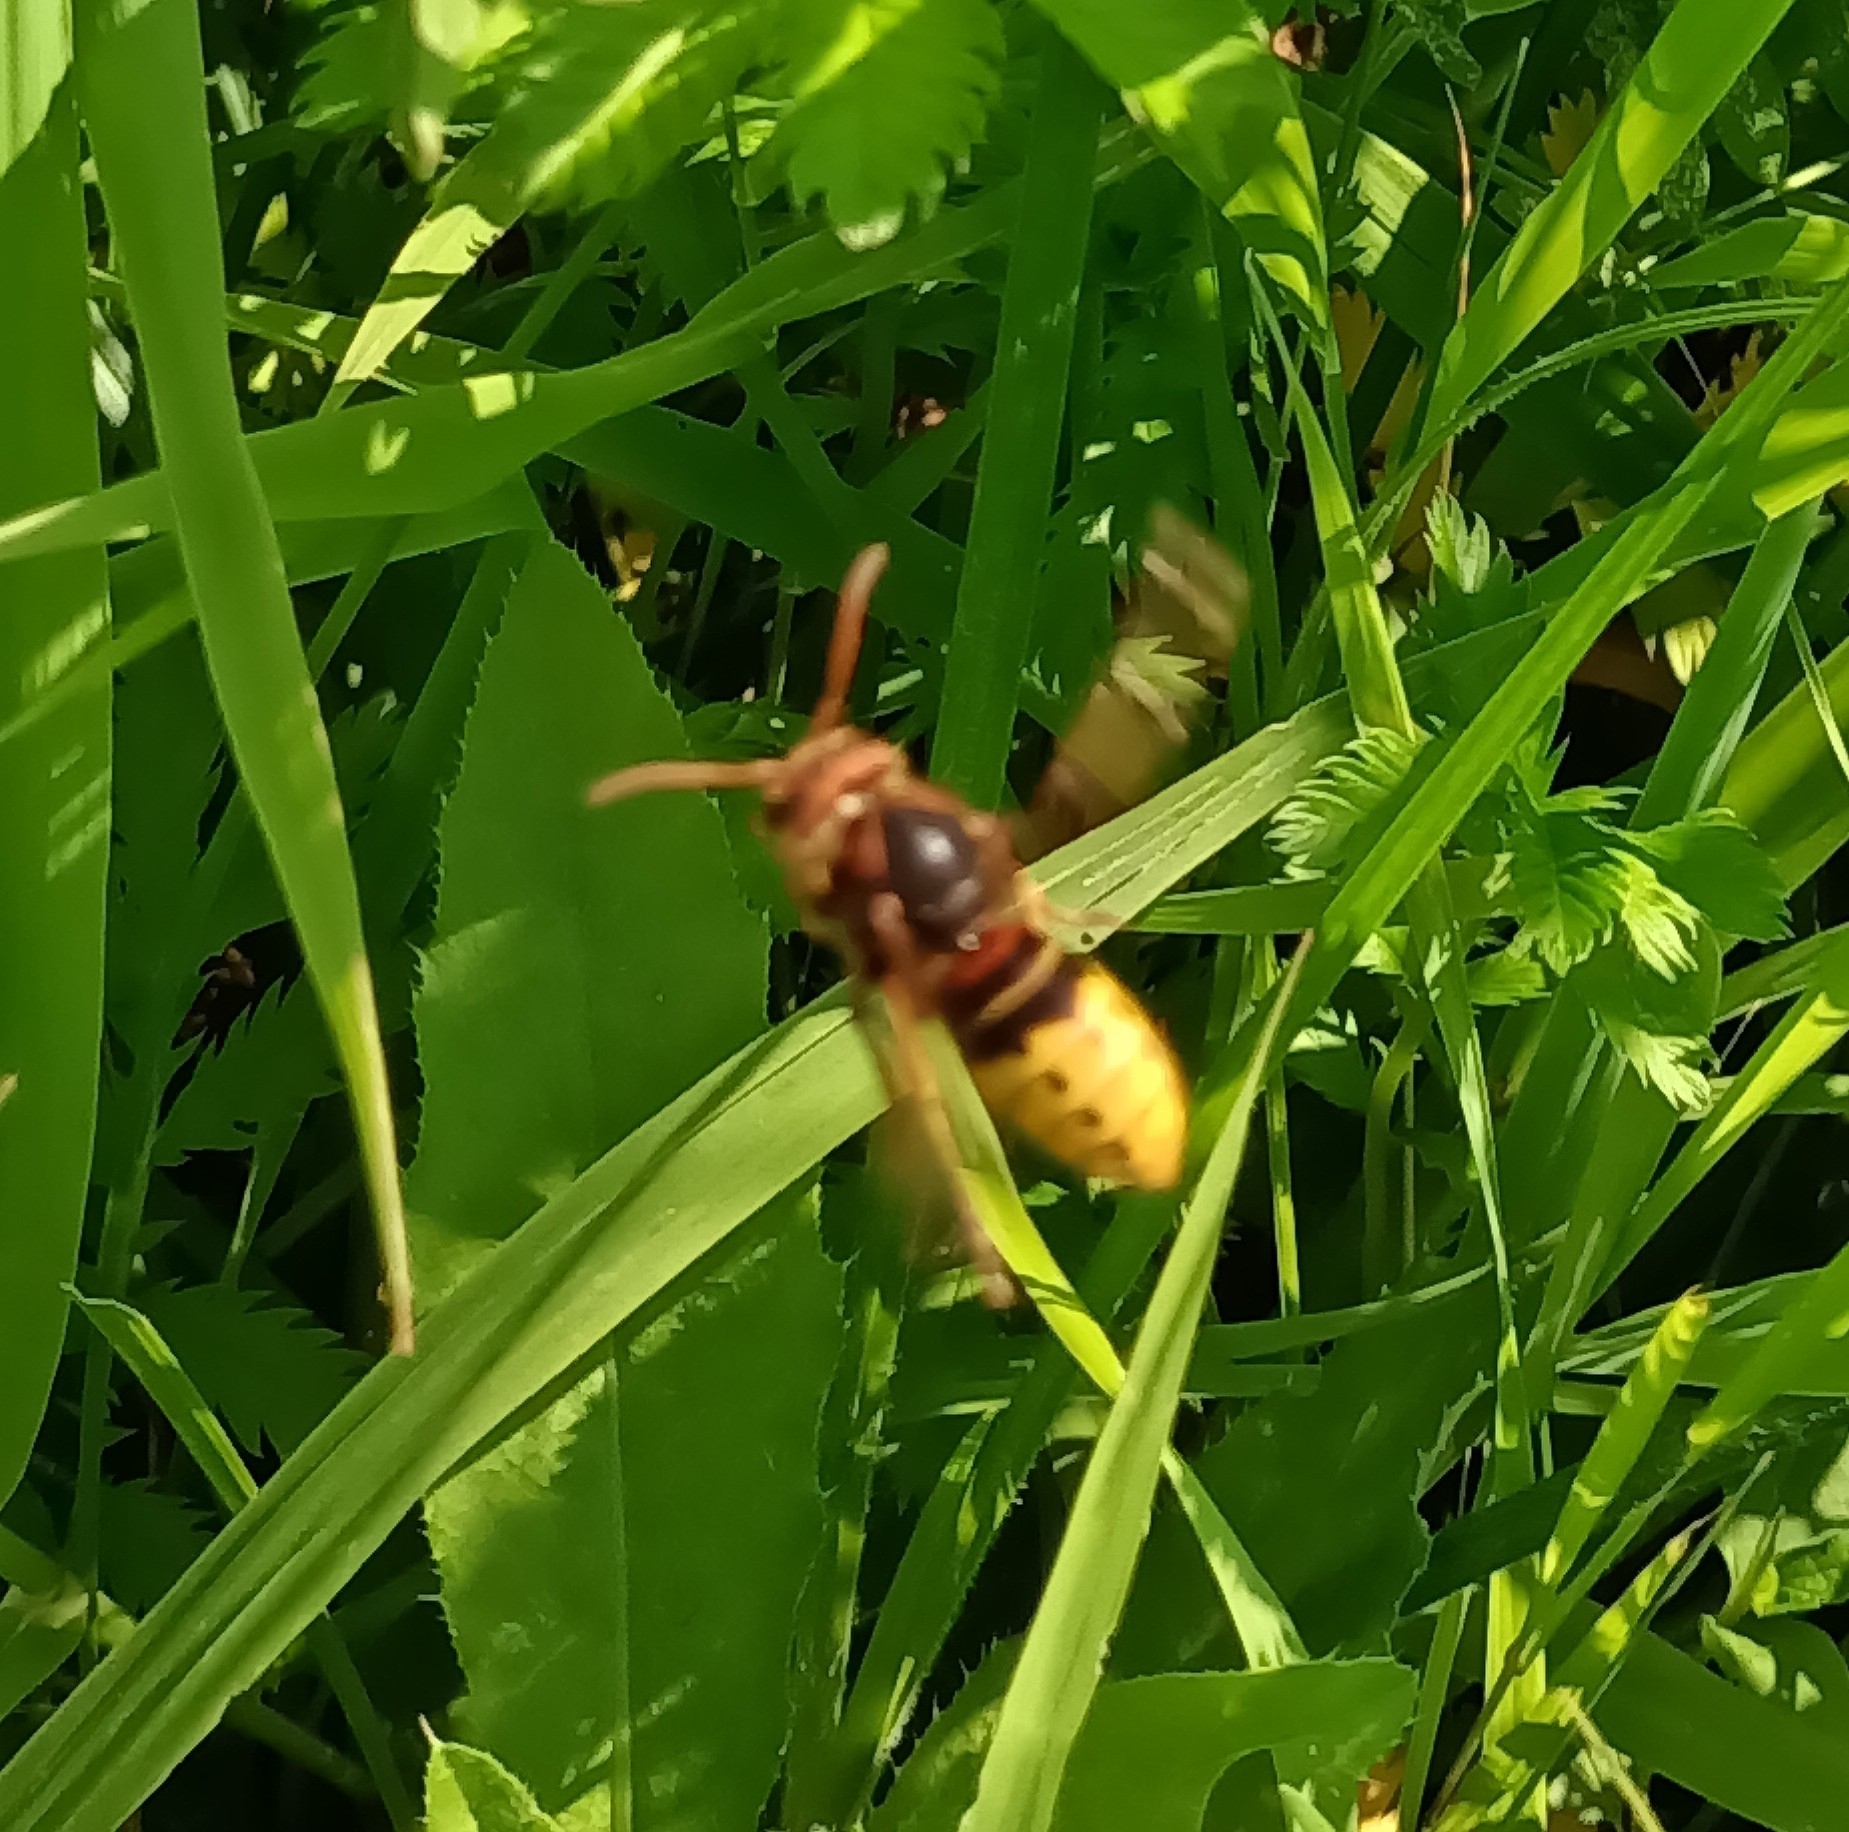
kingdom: Animalia
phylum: Arthropoda
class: Insecta
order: Hymenoptera
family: Vespidae
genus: Vespa
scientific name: Vespa crabro
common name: Hornet
